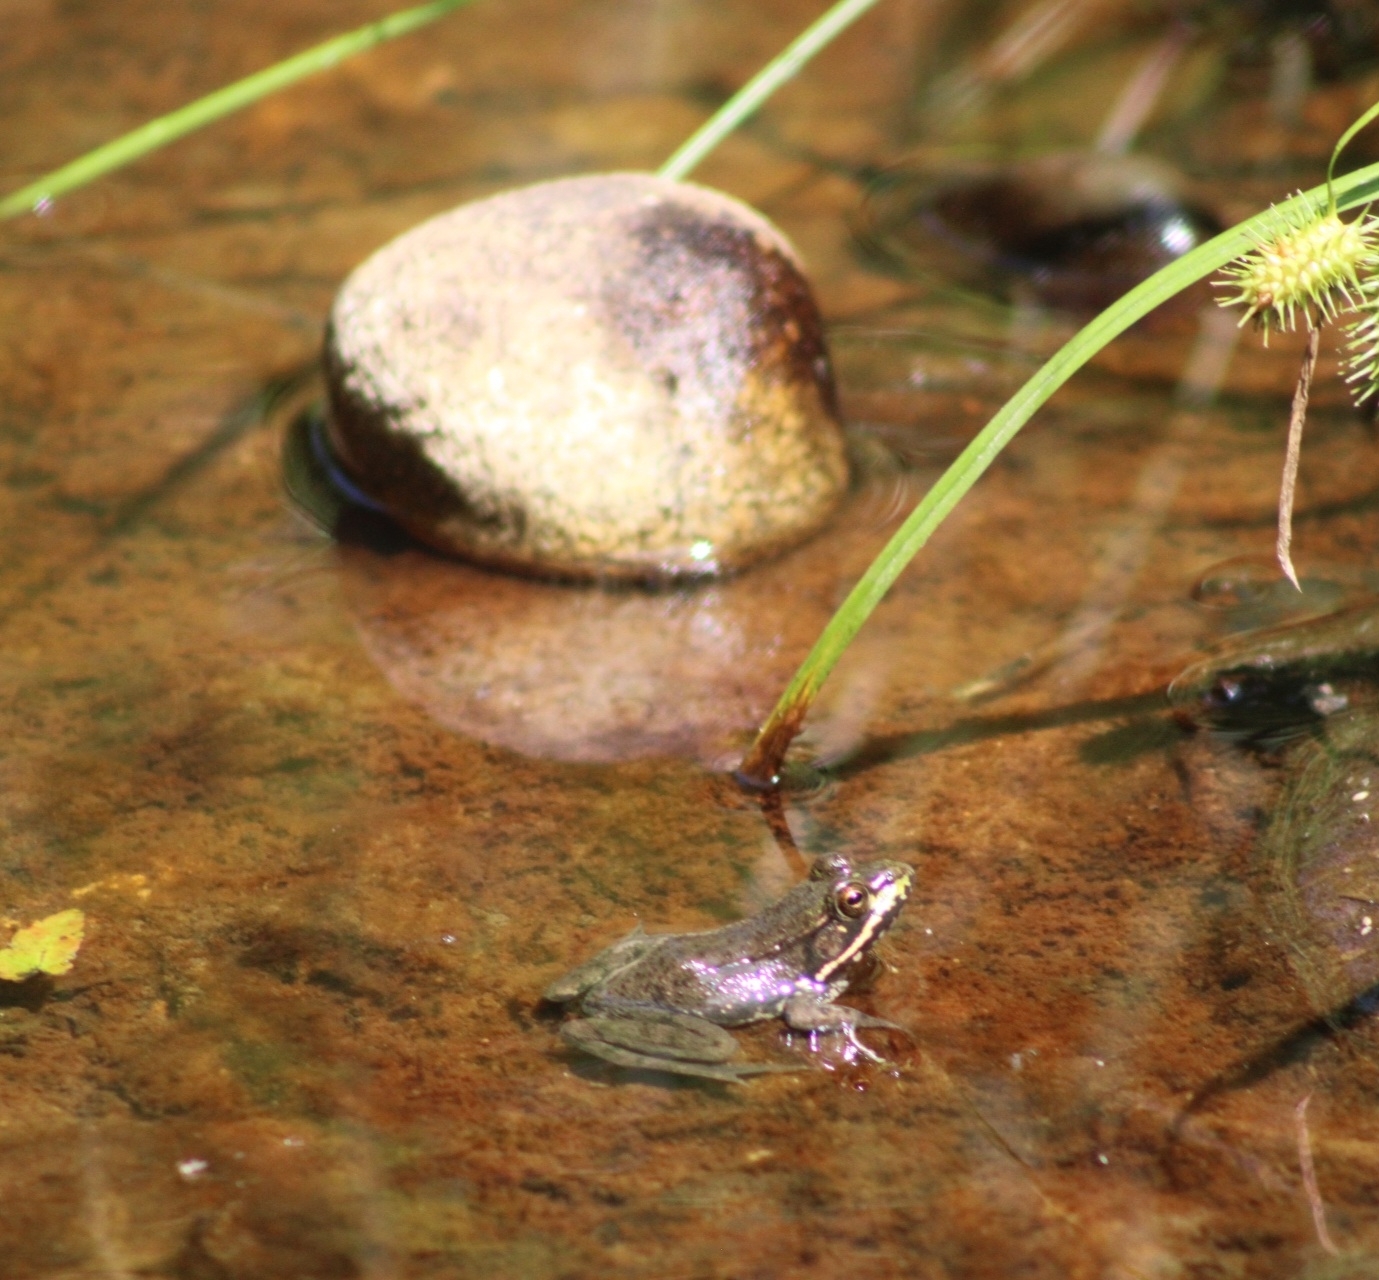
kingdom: Animalia
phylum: Chordata
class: Amphibia
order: Anura
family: Ranidae
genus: Lithobates
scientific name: Lithobates clamitans
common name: Green frog
